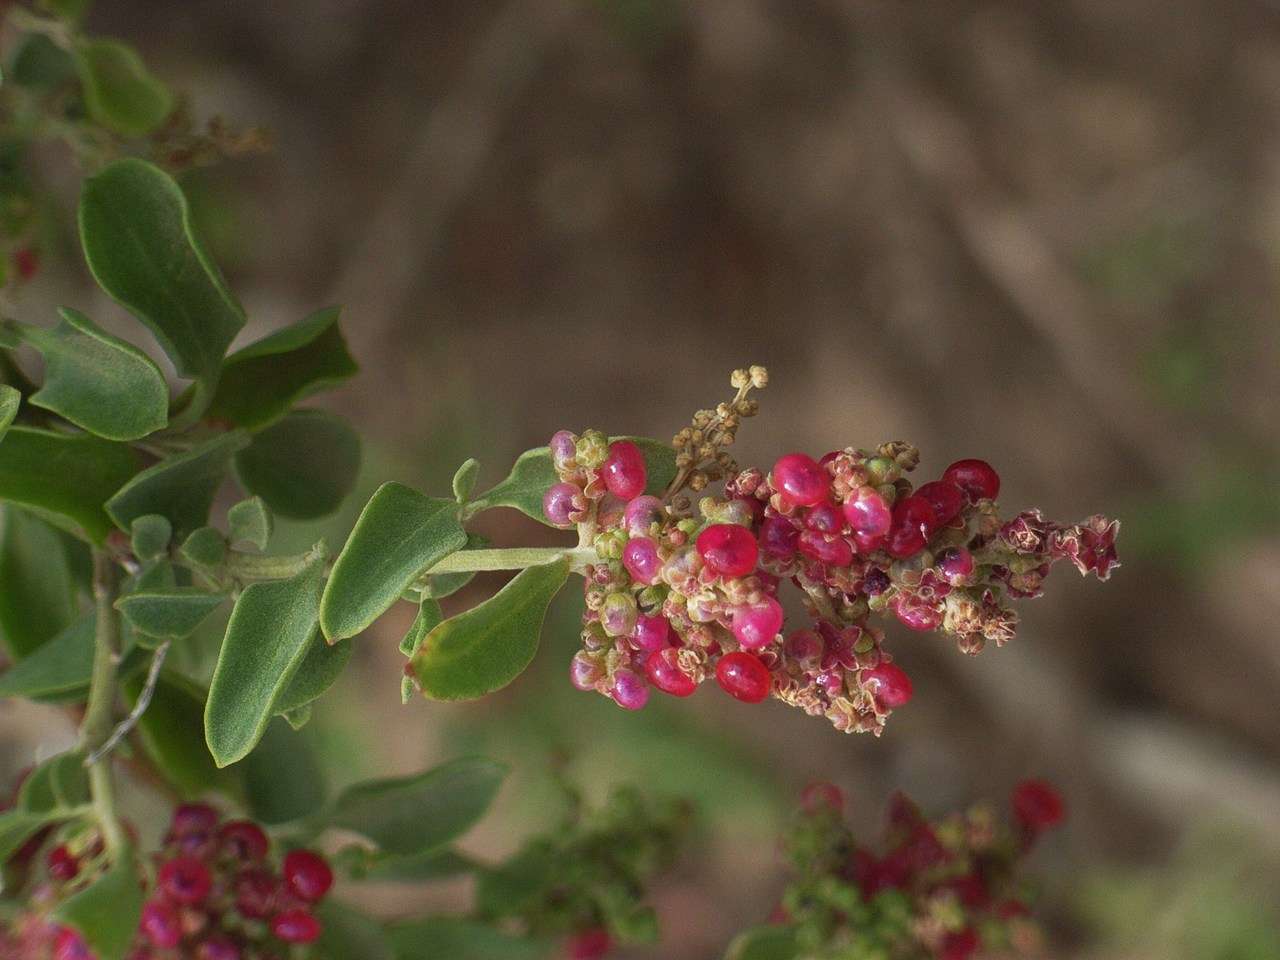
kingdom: Plantae
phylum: Tracheophyta
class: Magnoliopsida
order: Caryophyllales
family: Amaranthaceae
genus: Chenopodium
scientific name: Chenopodium parabolicum
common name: Old-man-saltbush
